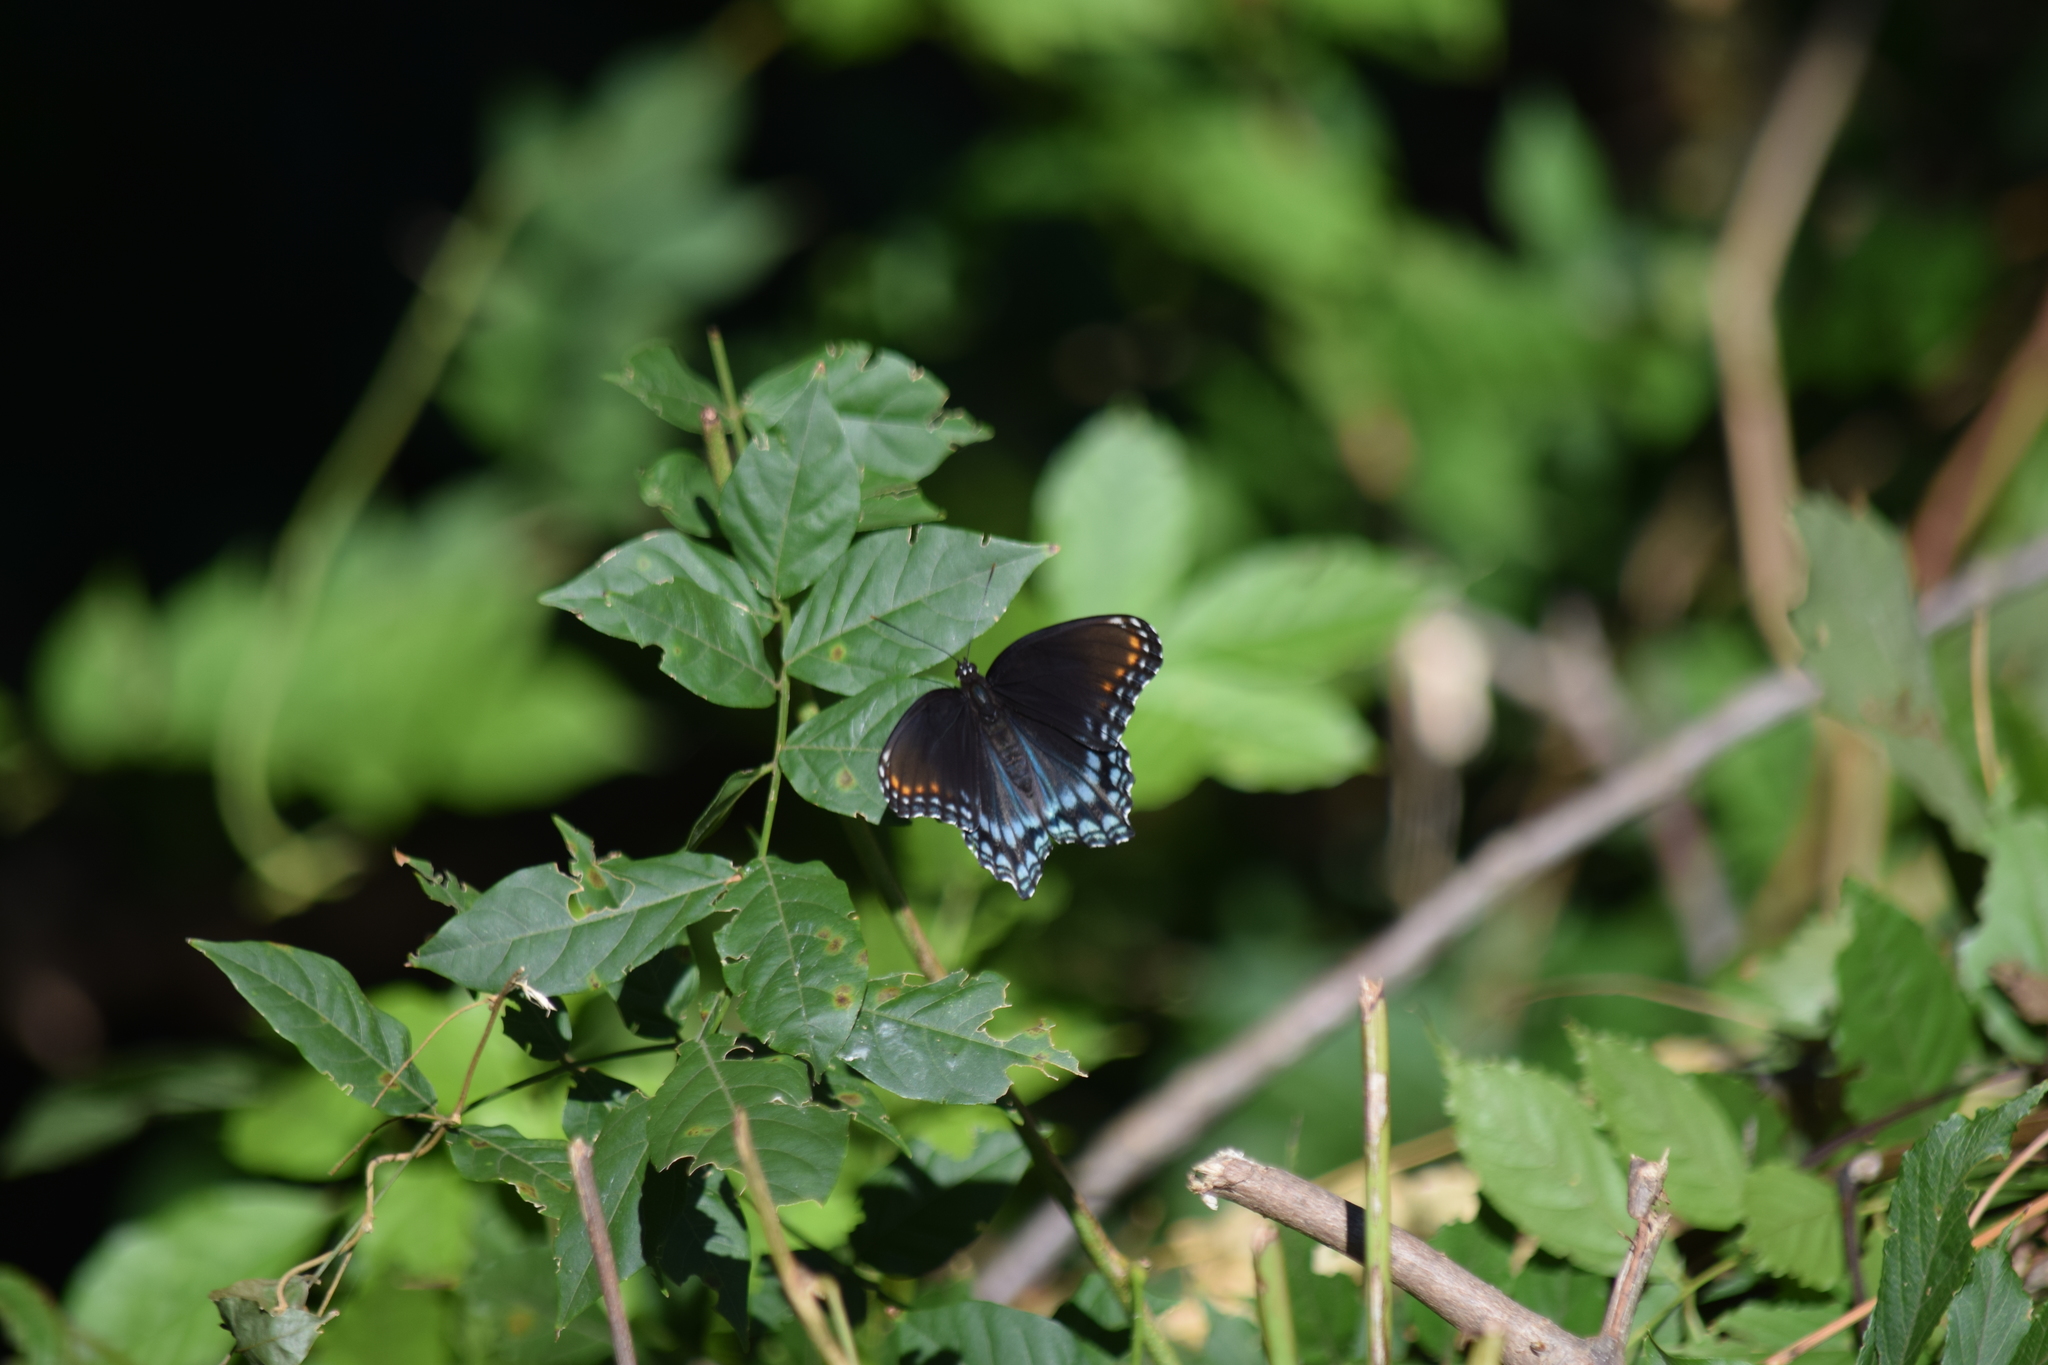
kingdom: Animalia
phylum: Arthropoda
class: Insecta
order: Lepidoptera
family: Nymphalidae
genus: Limenitis
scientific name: Limenitis astyanax
